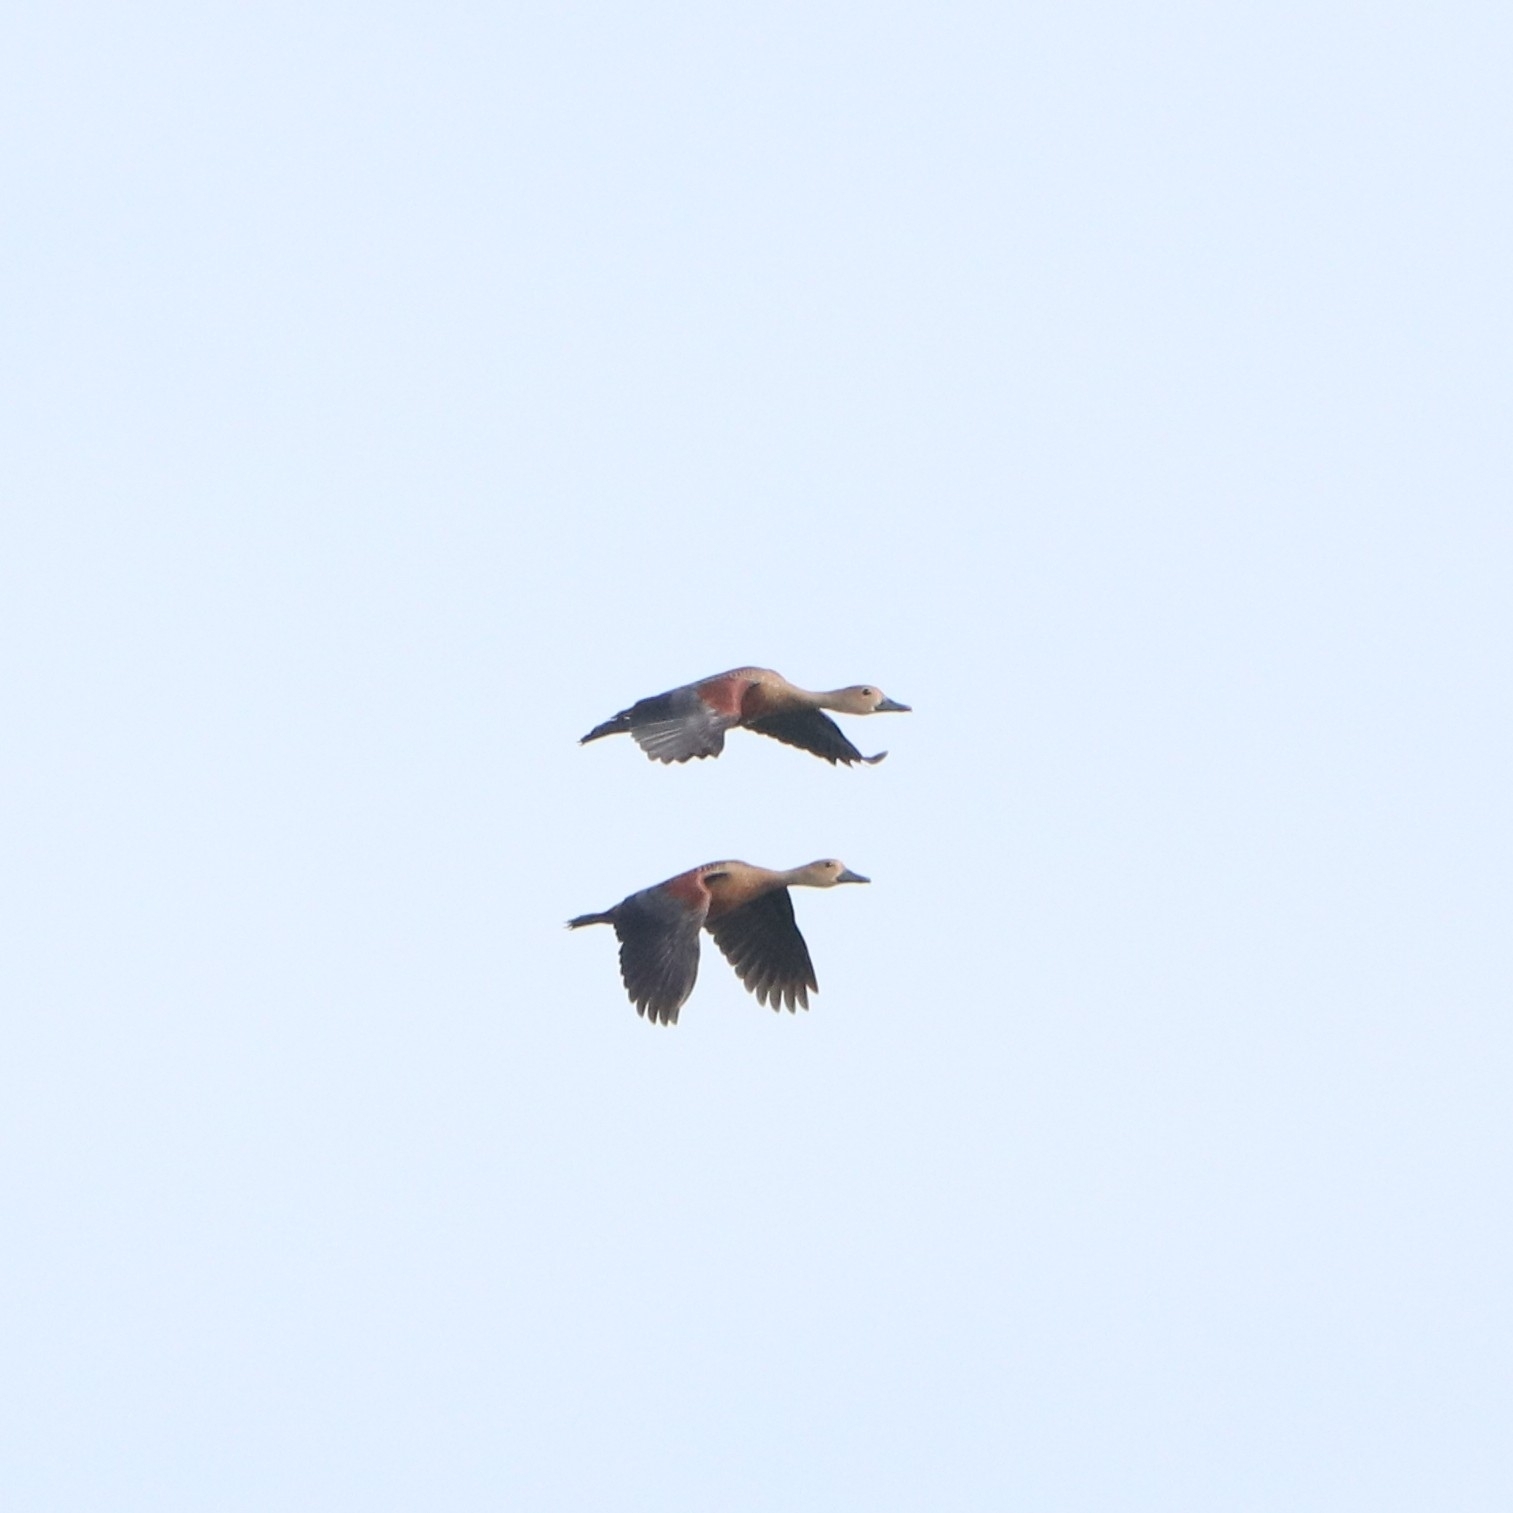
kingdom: Animalia
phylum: Chordata
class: Aves
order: Anseriformes
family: Anatidae
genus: Dendrocygna
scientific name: Dendrocygna javanica
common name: Lesser whistling-duck
